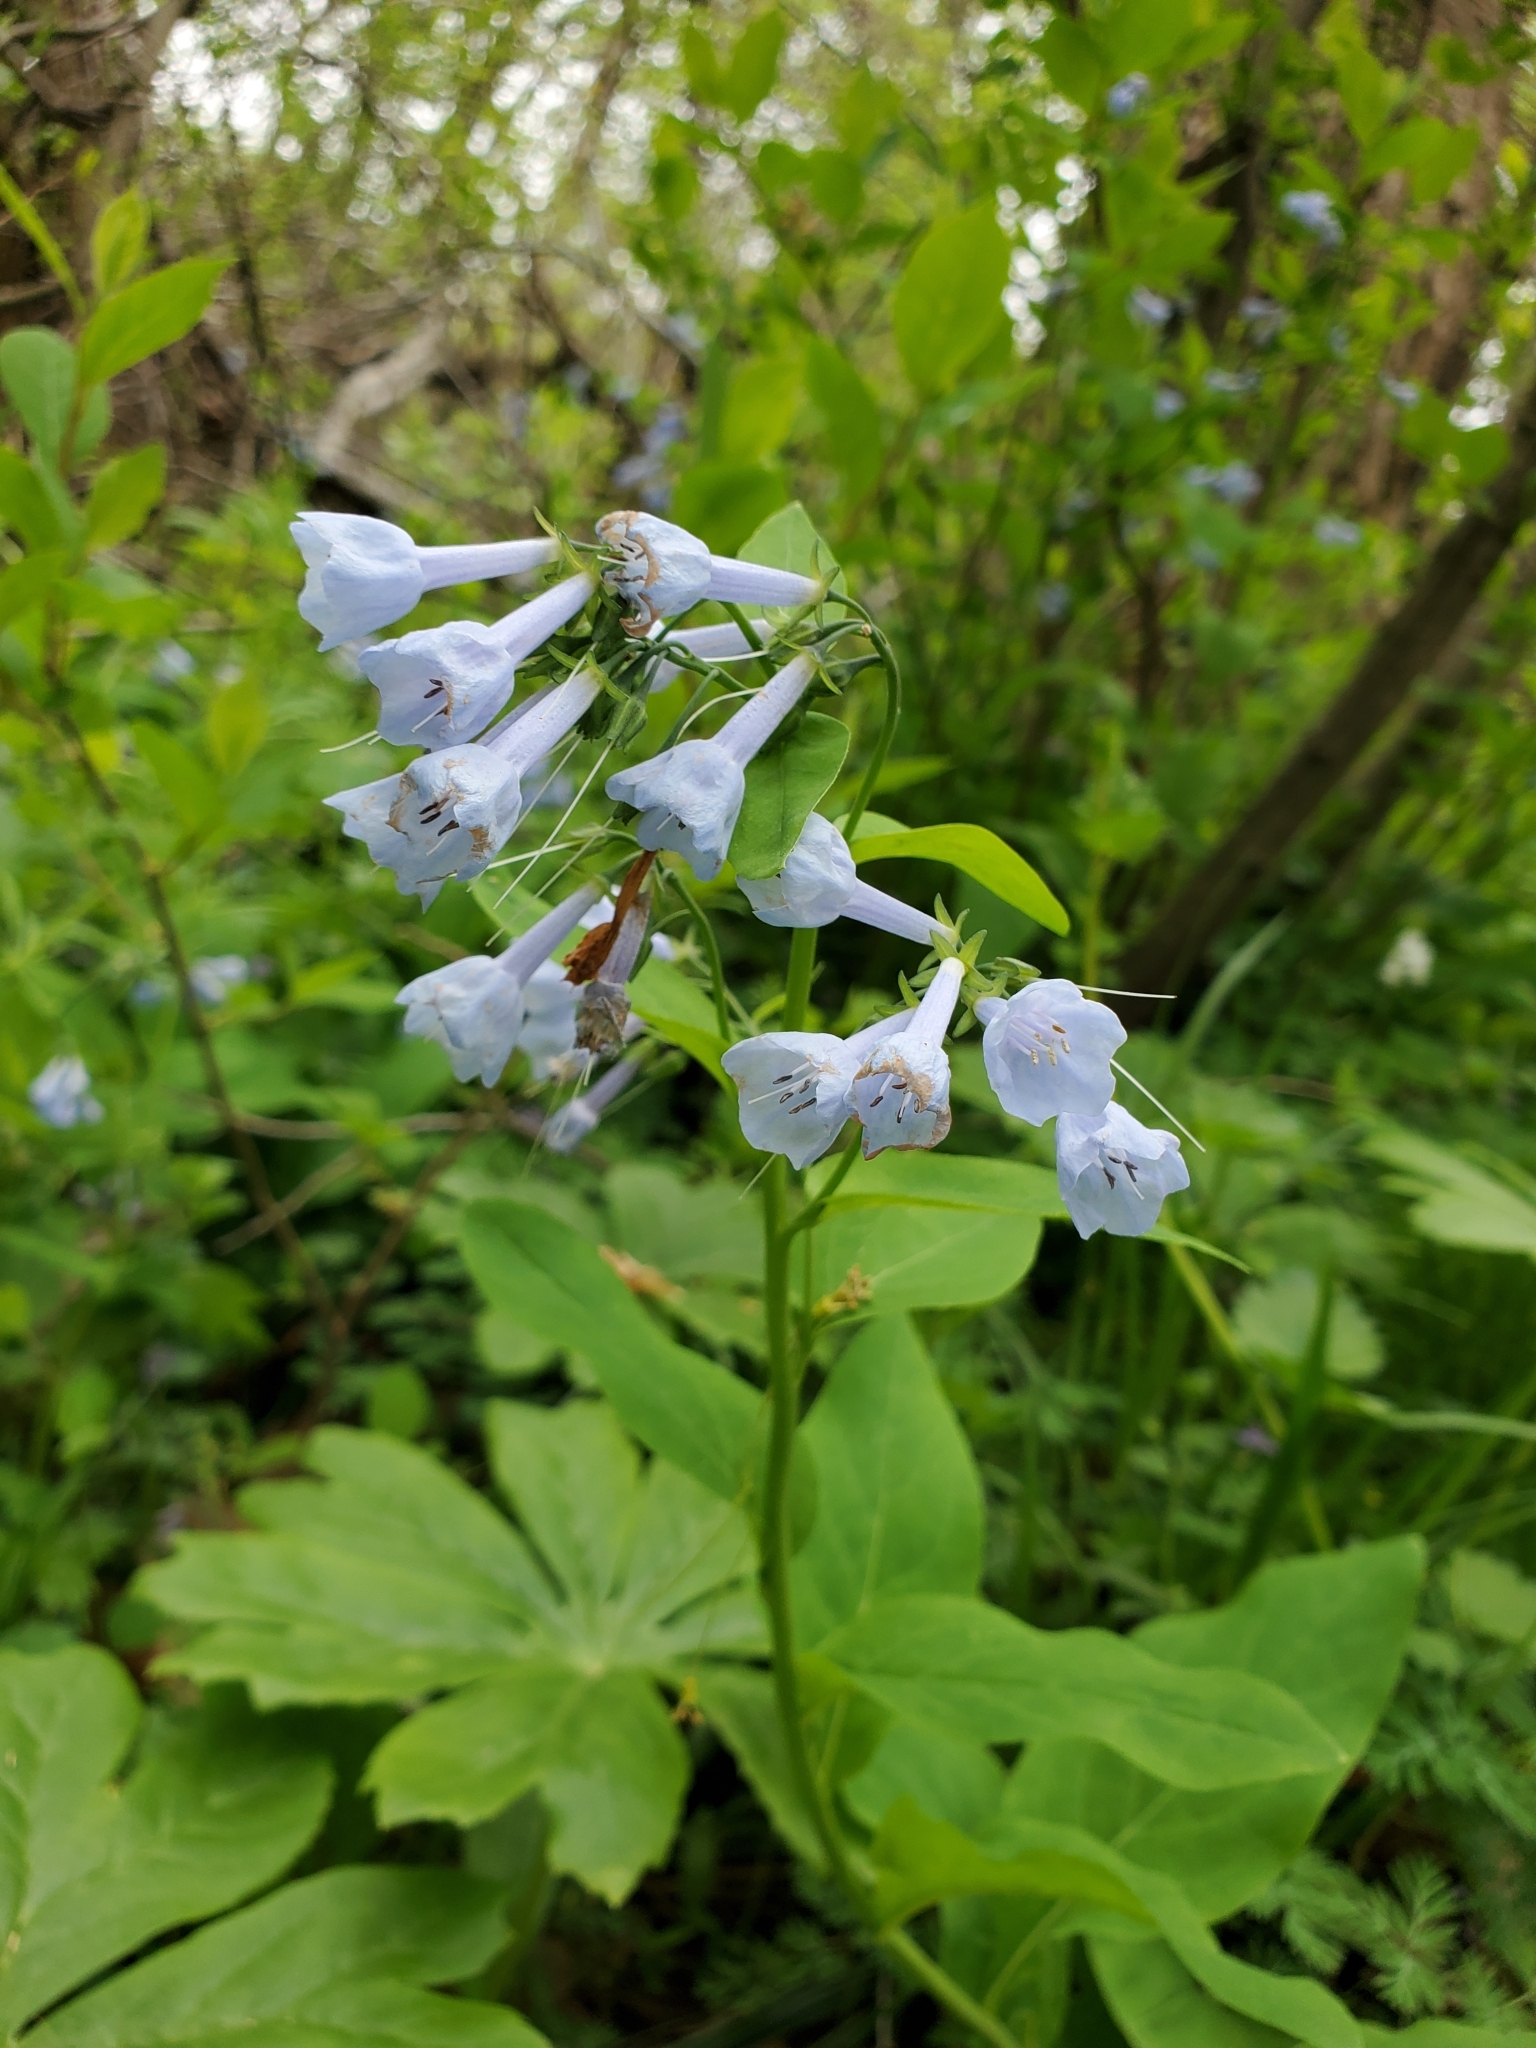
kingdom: Plantae
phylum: Tracheophyta
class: Magnoliopsida
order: Boraginales
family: Boraginaceae
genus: Mertensia
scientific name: Mertensia virginica
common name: Virginia bluebells
